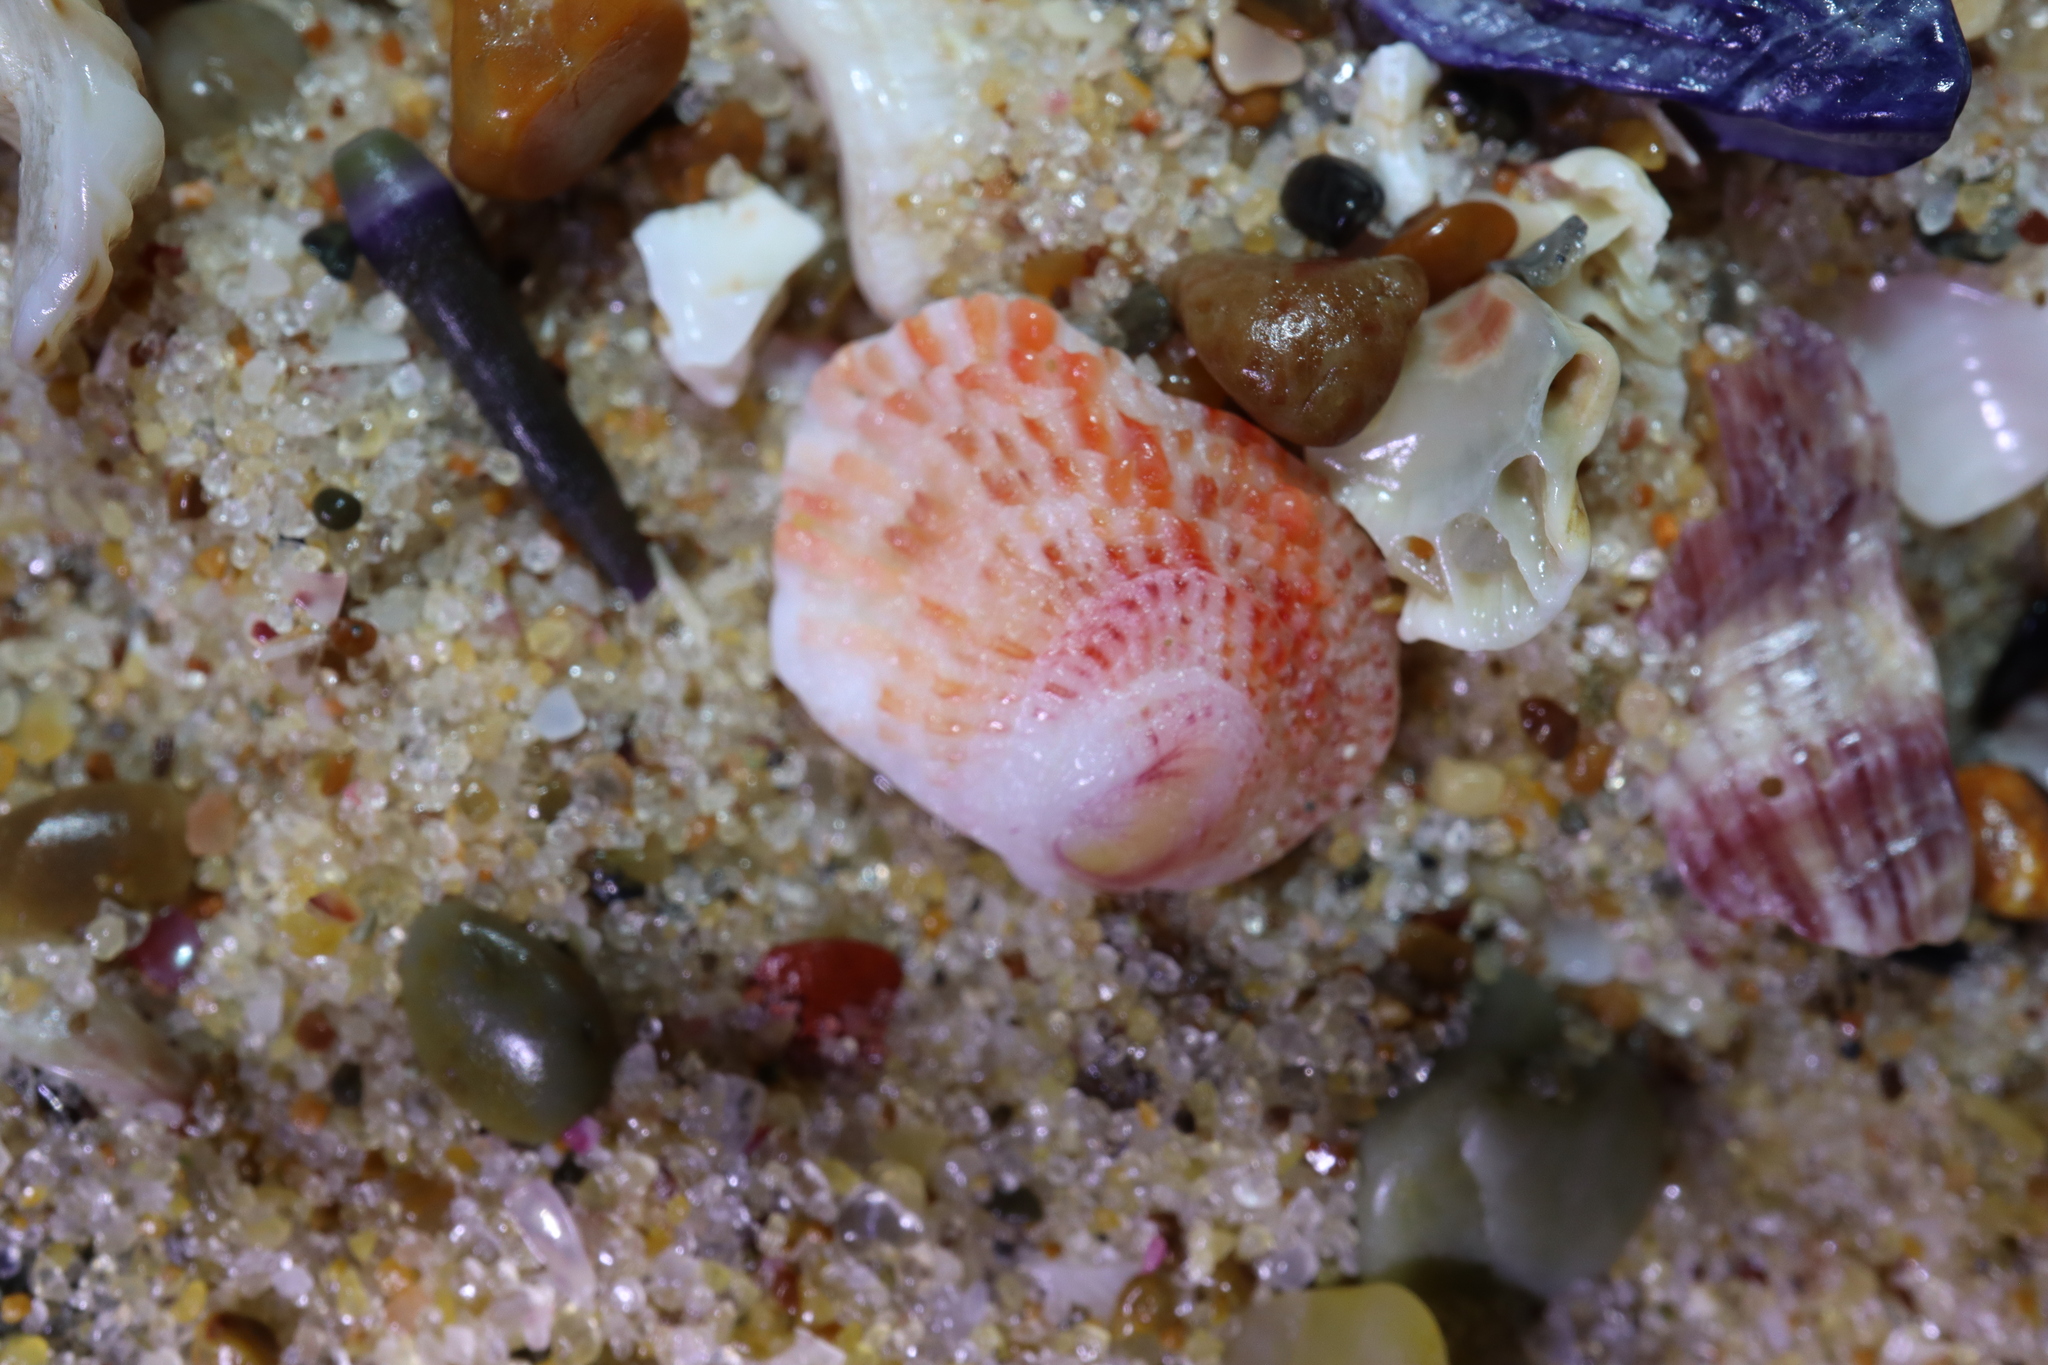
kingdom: Animalia
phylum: Mollusca
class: Bivalvia
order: Pectinida
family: Spondylidae
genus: Spondylus
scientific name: Spondylus tenellus
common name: Scarlet thorny oyster
